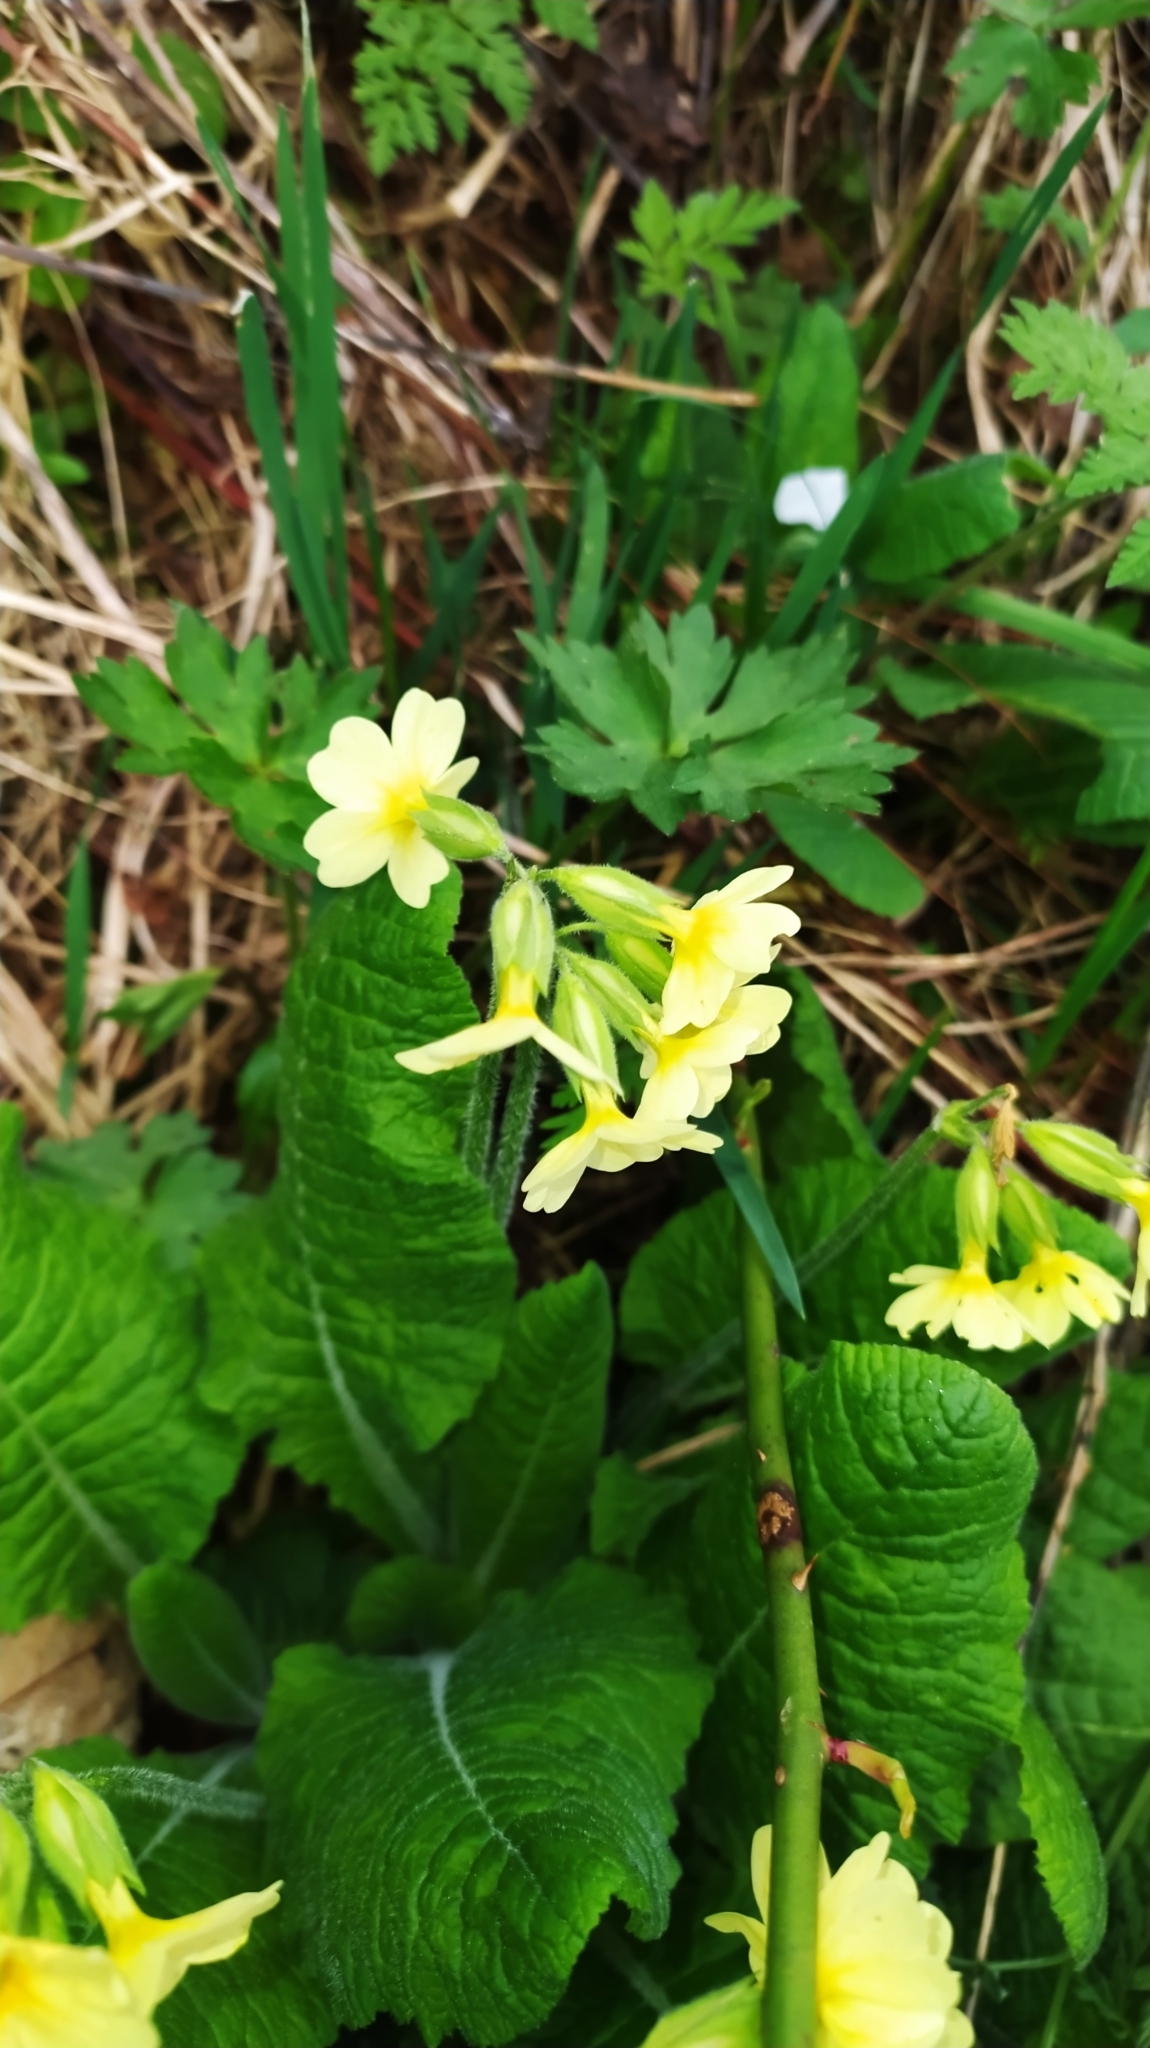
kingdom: Plantae
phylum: Tracheophyta
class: Magnoliopsida
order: Ericales
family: Primulaceae
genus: Primula
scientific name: Primula elatior
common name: Oxlip
